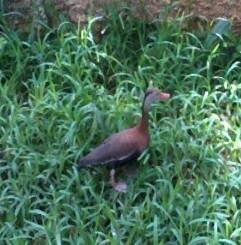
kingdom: Animalia
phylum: Chordata
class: Aves
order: Anseriformes
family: Anatidae
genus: Dendrocygna
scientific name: Dendrocygna autumnalis
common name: Black-bellied whistling duck
